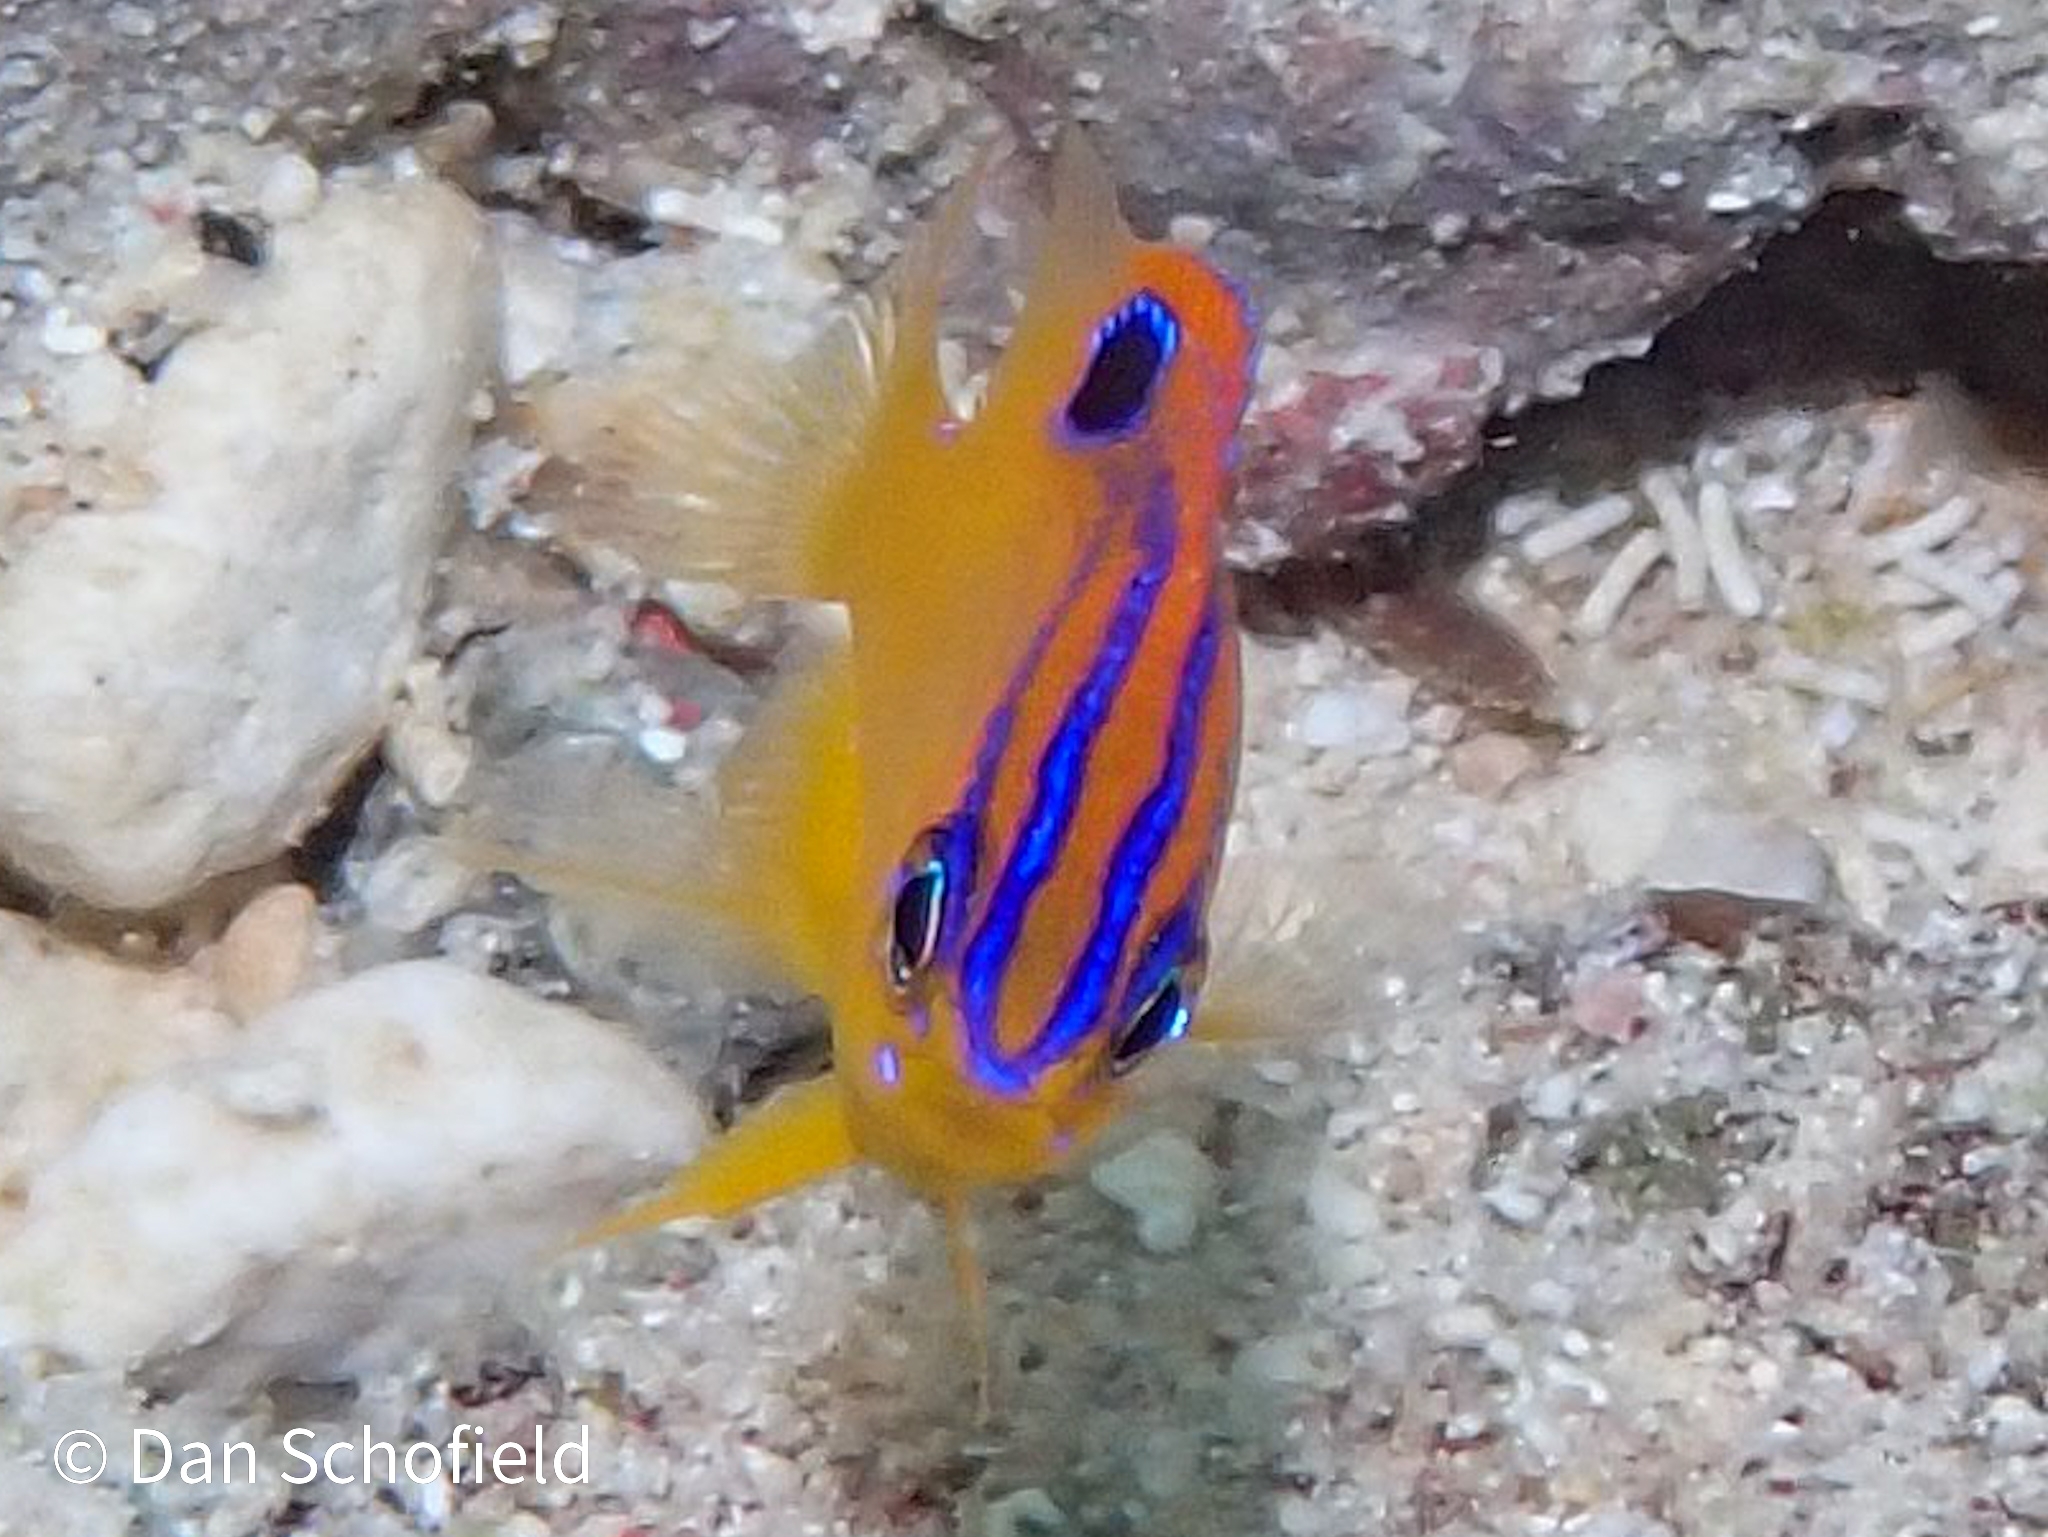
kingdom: Animalia
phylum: Chordata
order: Perciformes
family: Pomacentridae
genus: Stegastes
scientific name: Stegastes diencaeus
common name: Longfin damselfish
